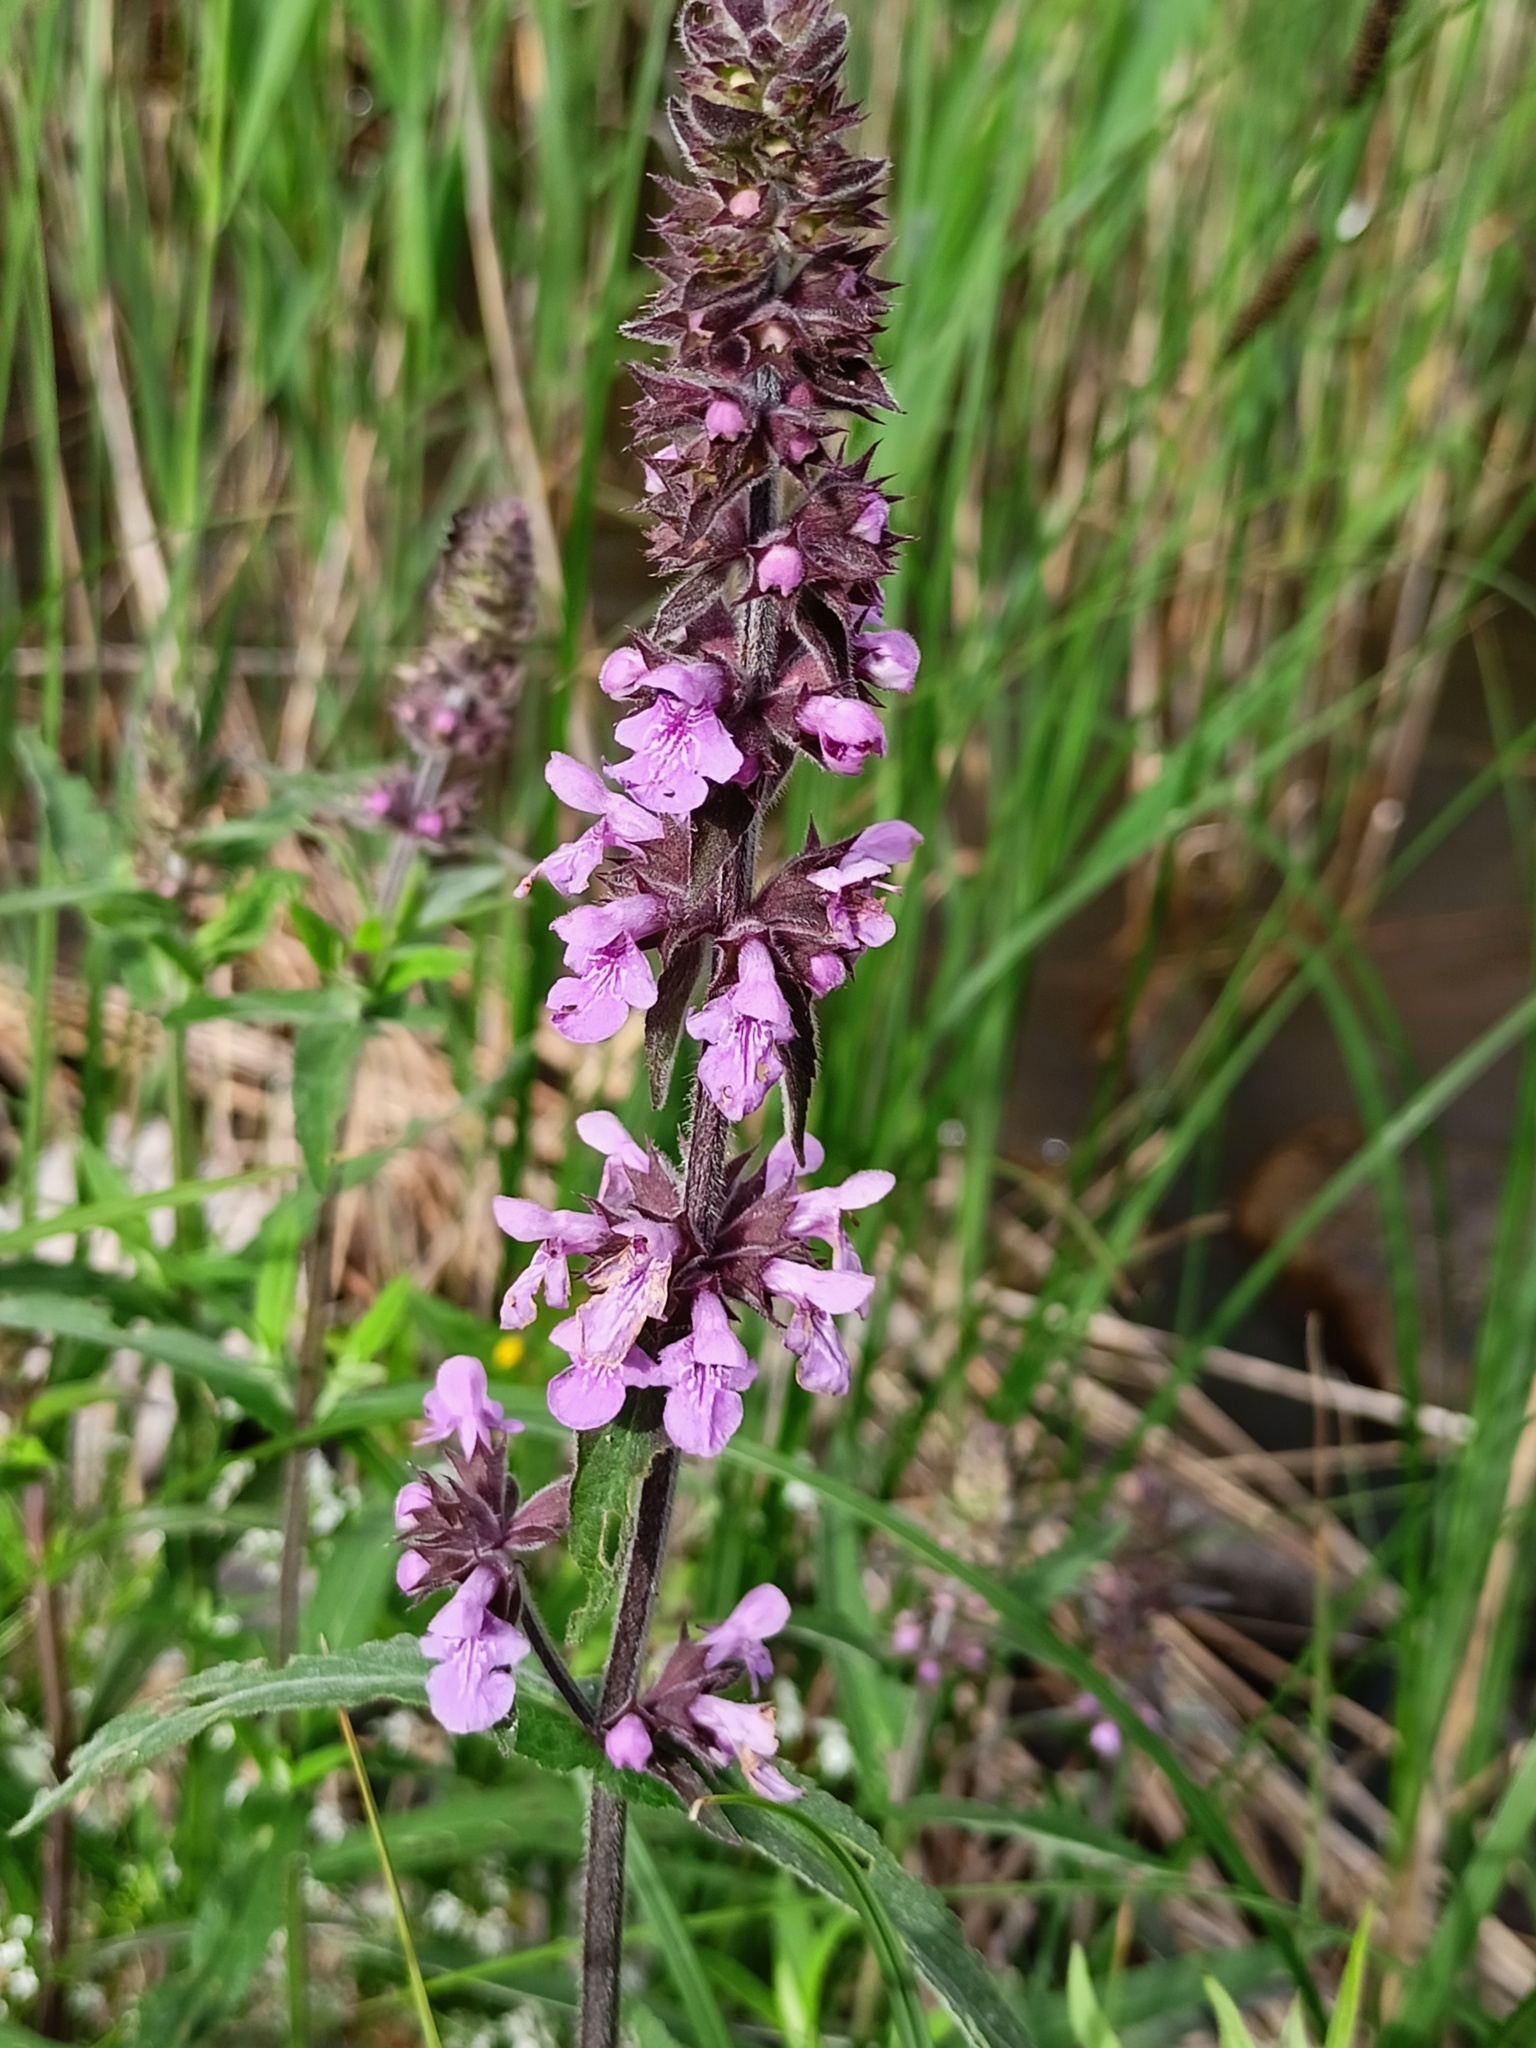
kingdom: Plantae
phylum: Tracheophyta
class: Magnoliopsida
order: Lamiales
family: Lamiaceae
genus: Stachys
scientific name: Stachys palustris
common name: Marsh woundwort
